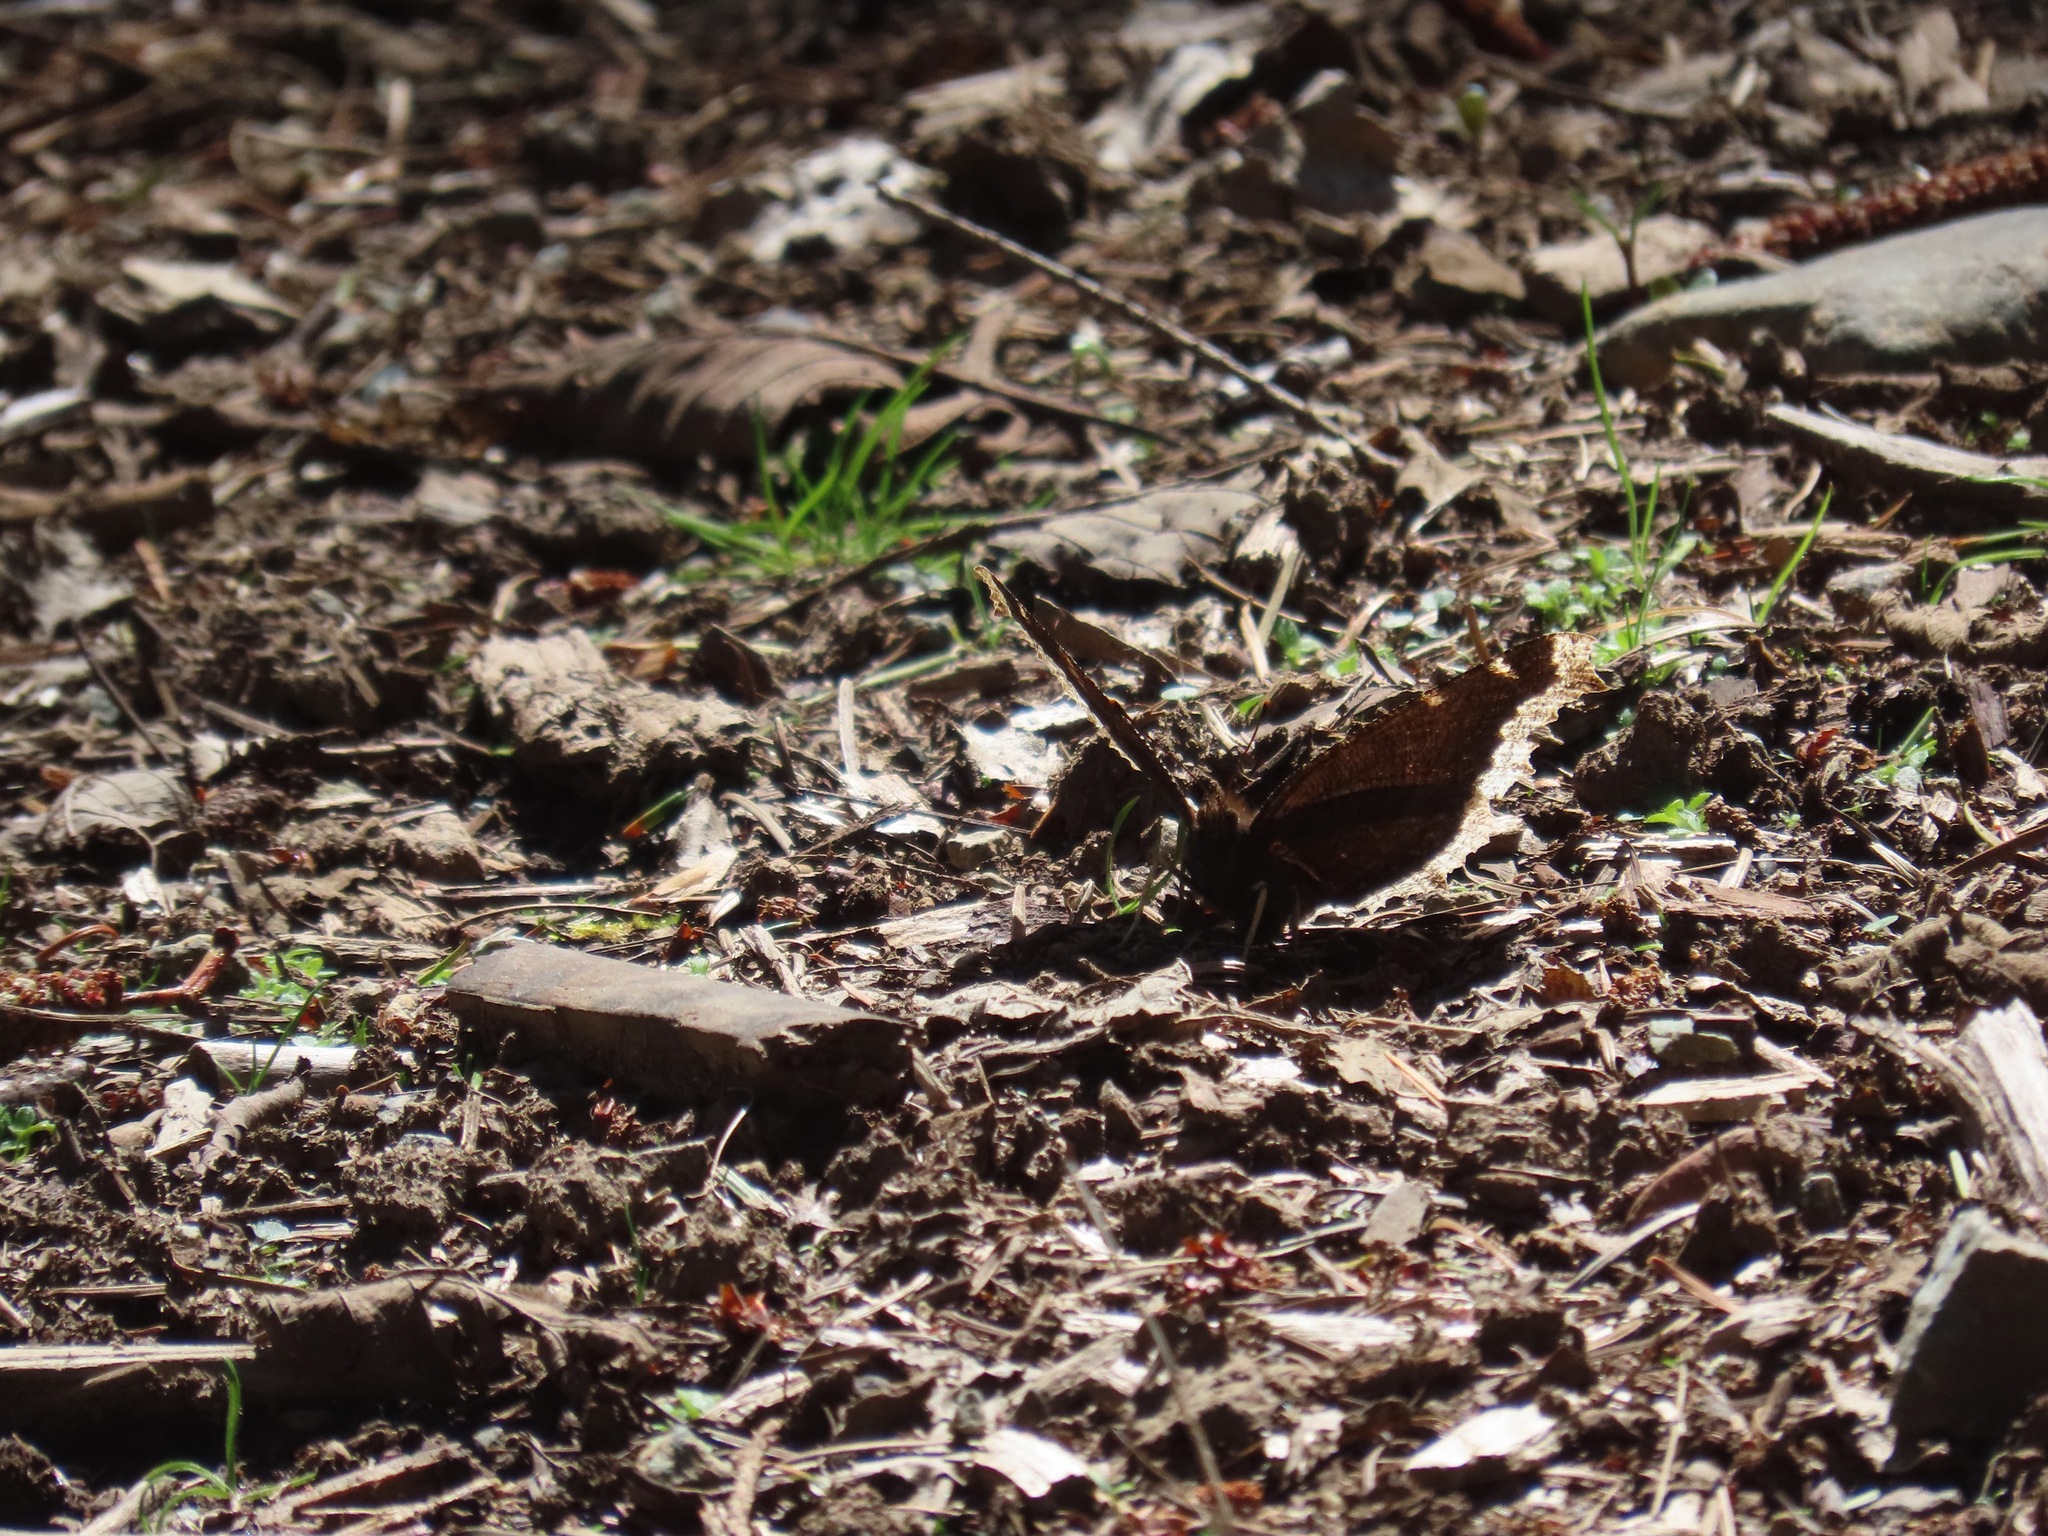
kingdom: Animalia
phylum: Arthropoda
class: Insecta
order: Lepidoptera
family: Nymphalidae
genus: Nymphalis
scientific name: Nymphalis antiopa
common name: Camberwell beauty
